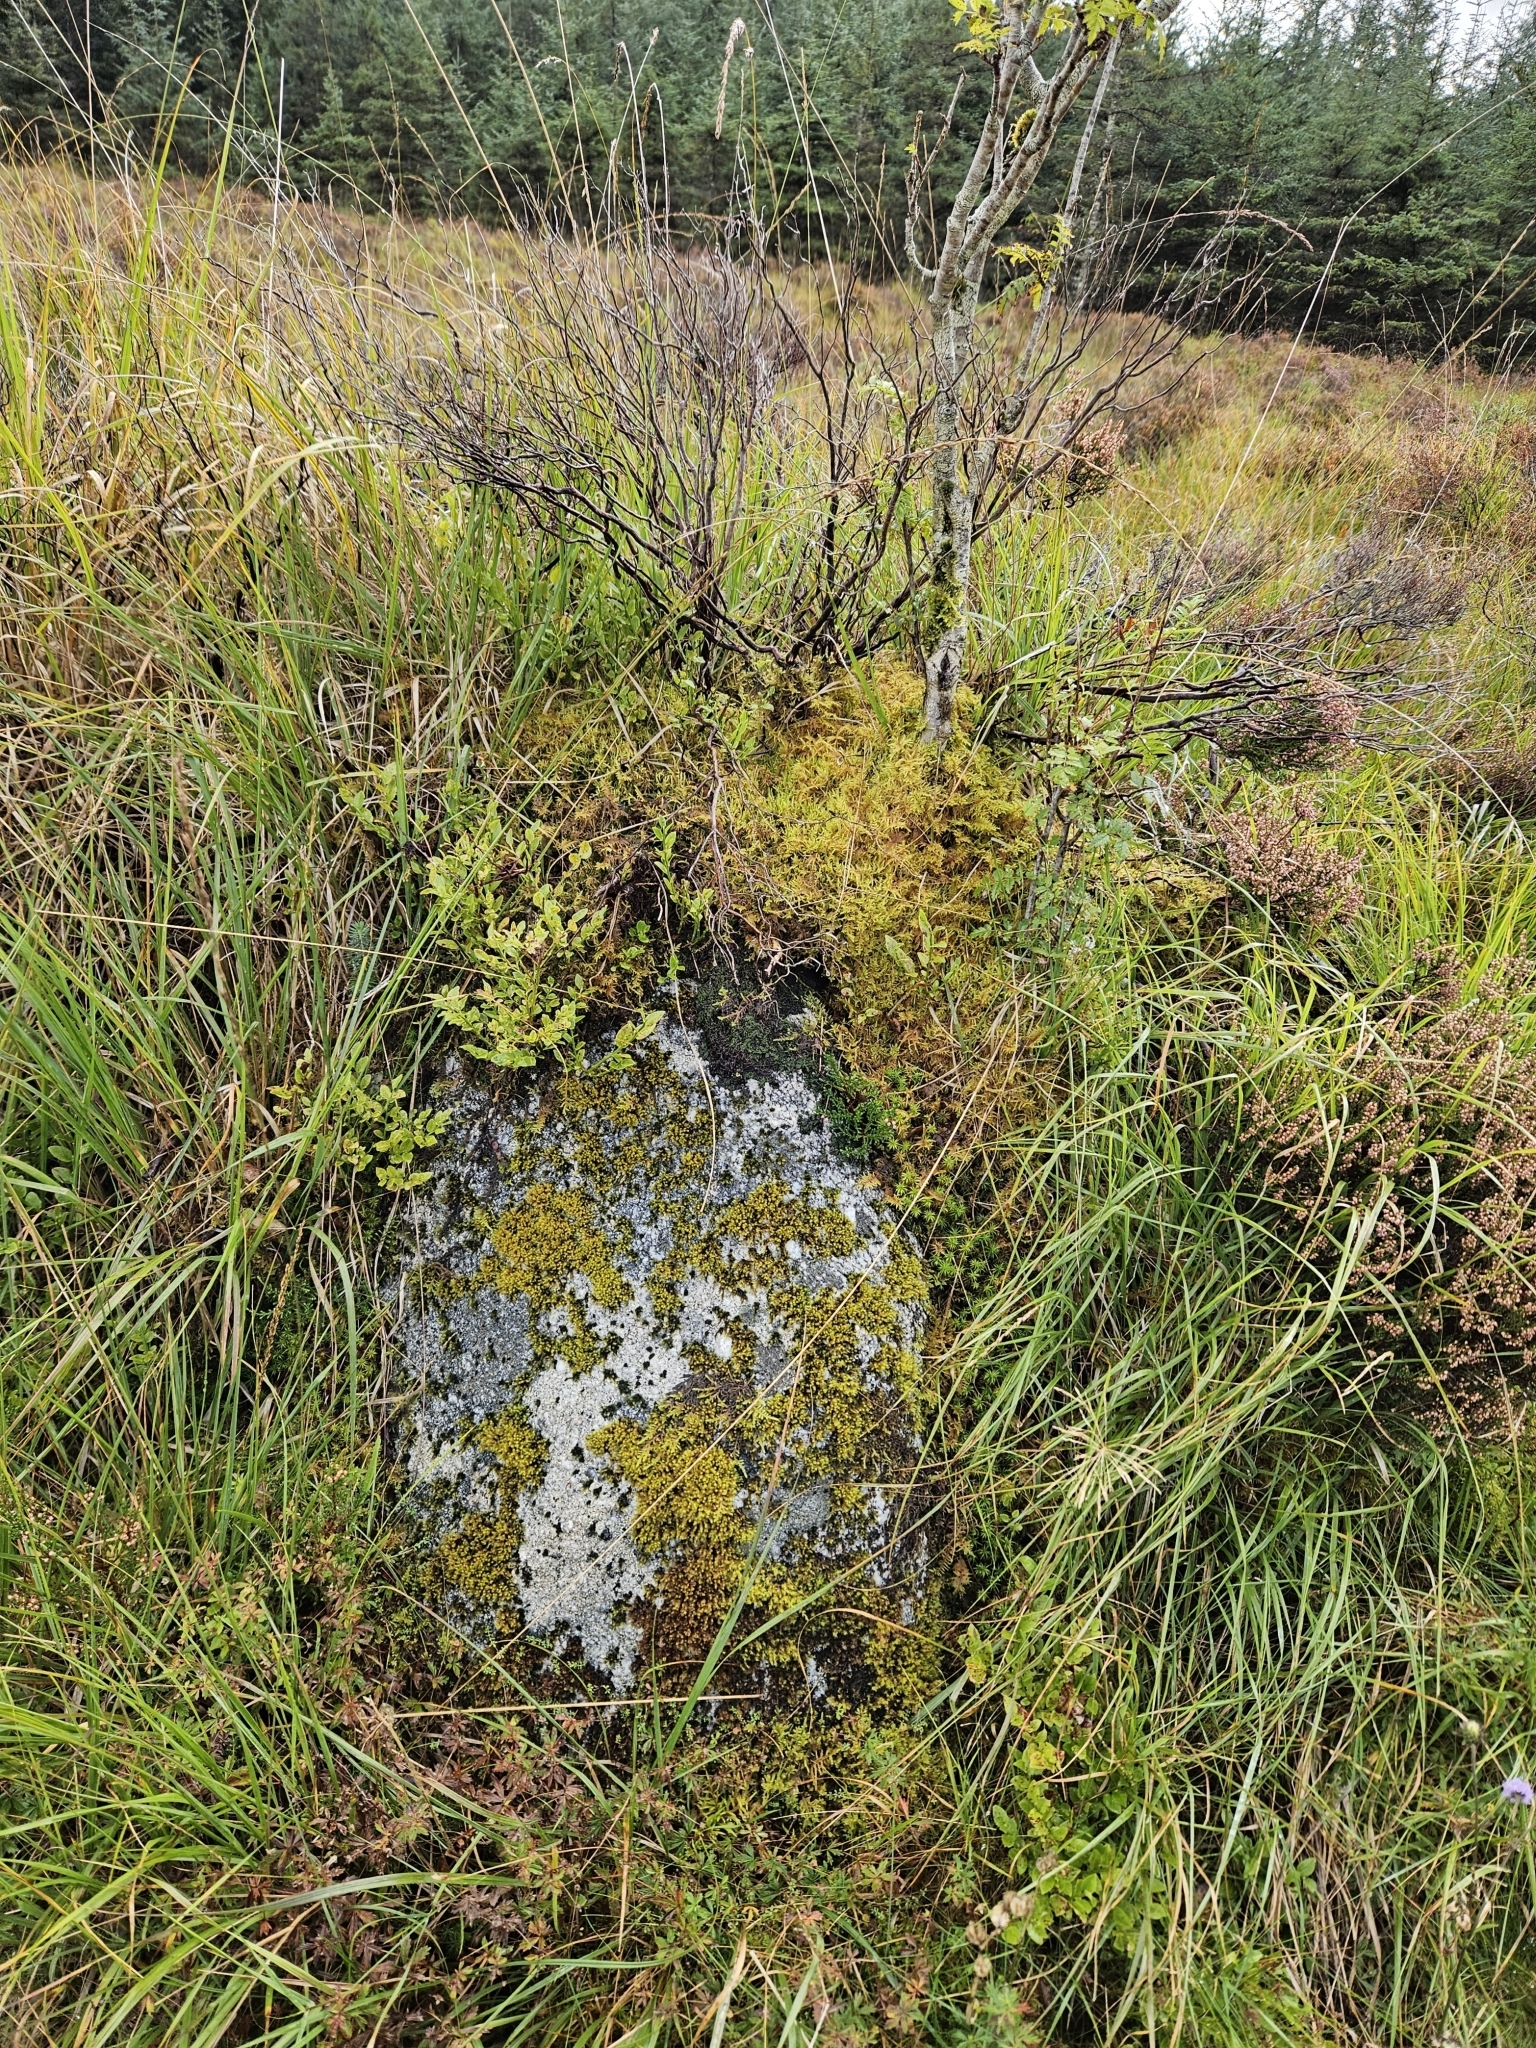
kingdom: Plantae
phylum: Bryophyta
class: Bryopsida
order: Grimmiales
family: Grimmiaceae
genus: Bucklandiella
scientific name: Bucklandiella obtusa
